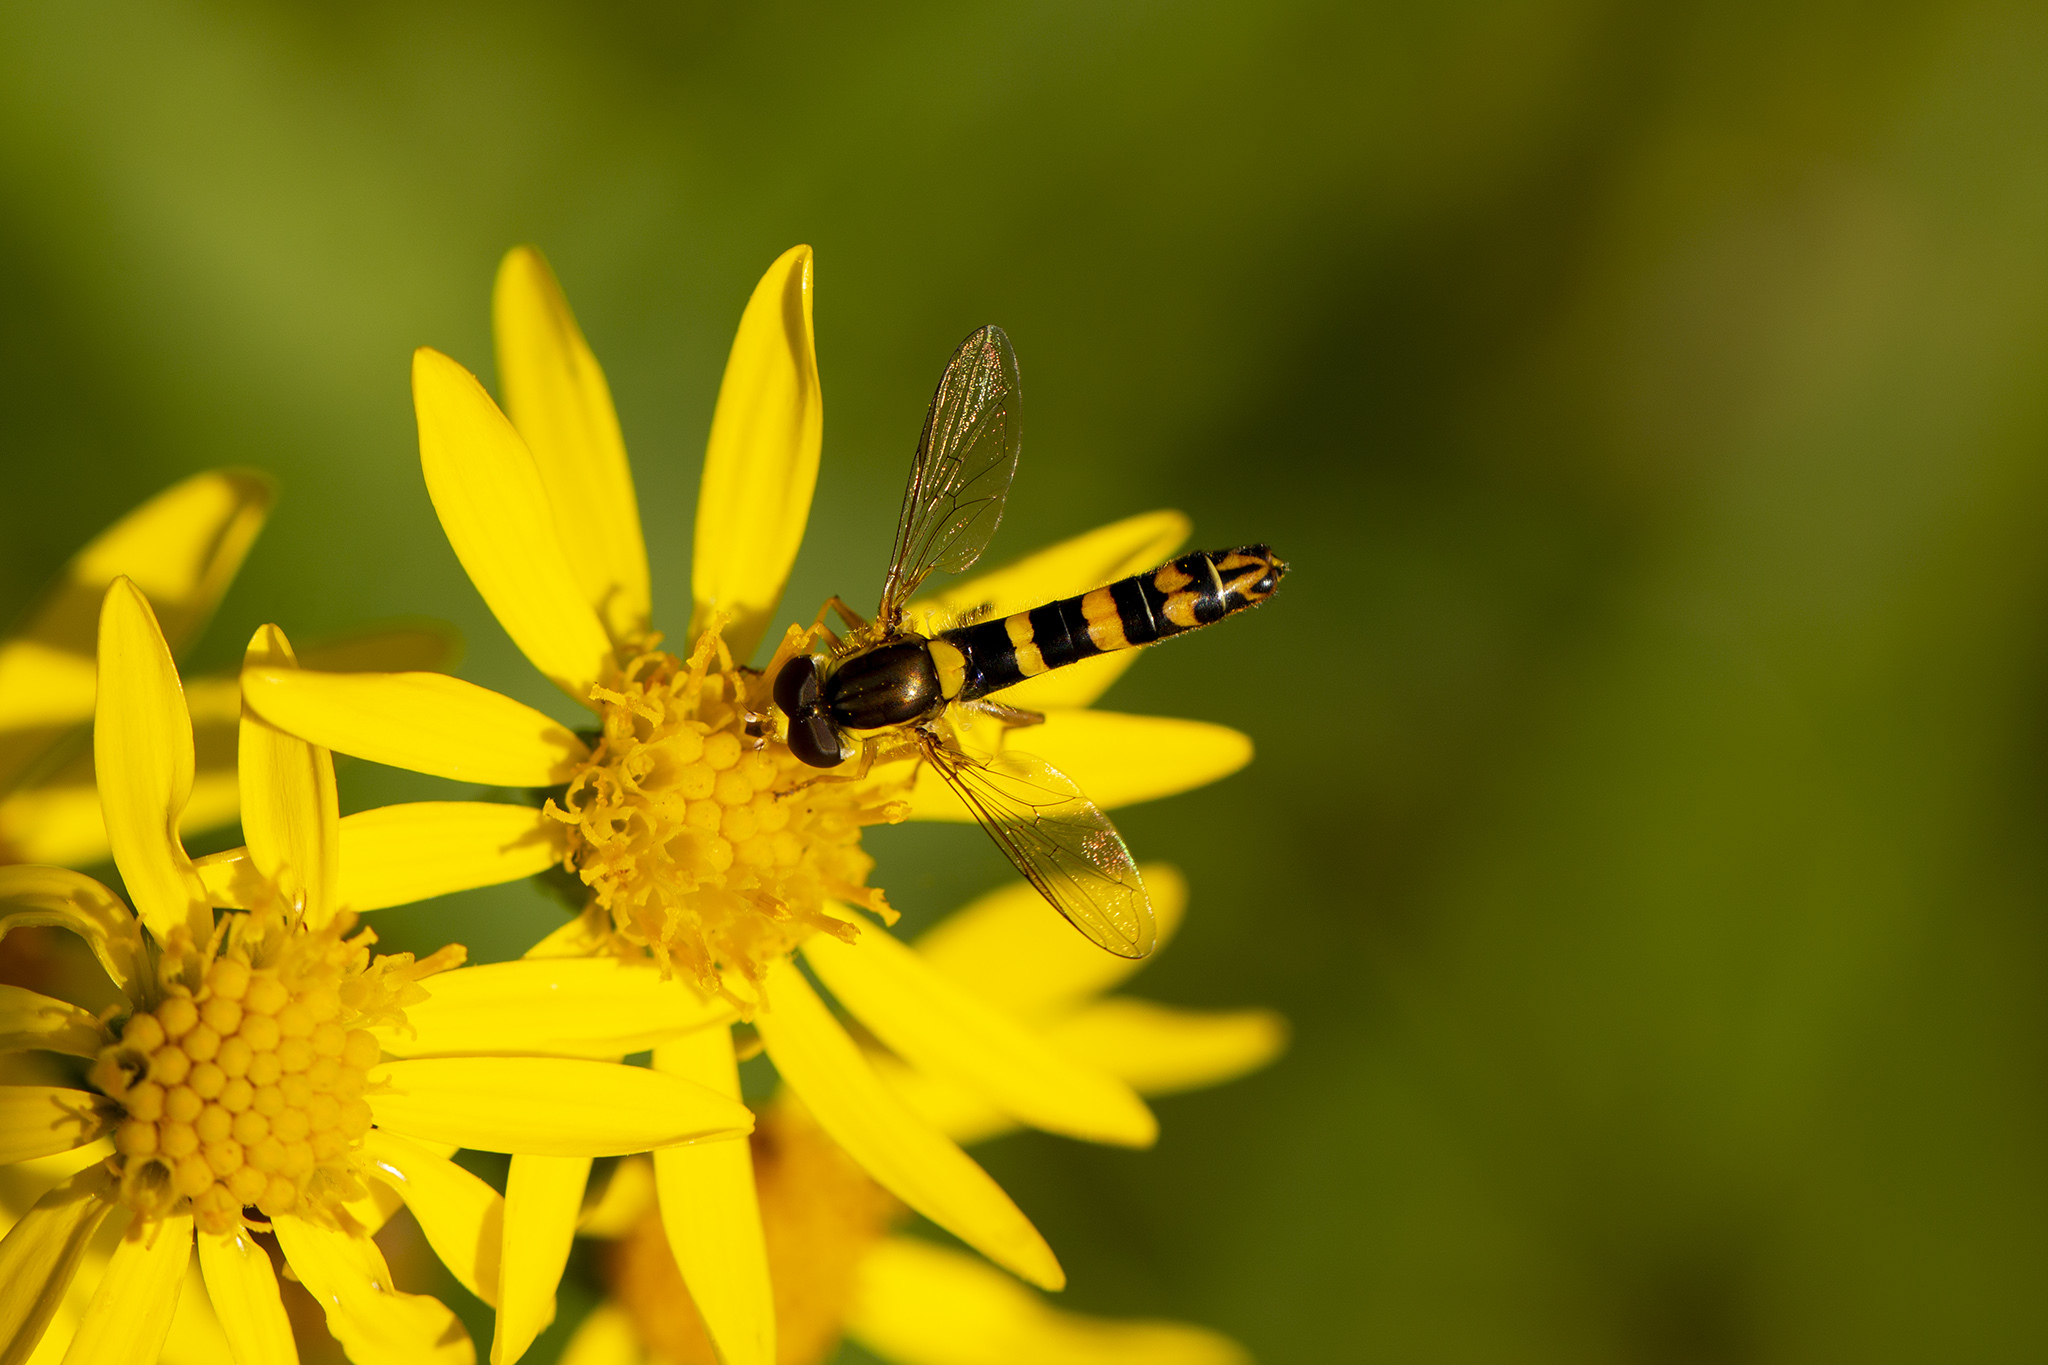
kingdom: Animalia
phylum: Arthropoda
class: Insecta
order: Diptera
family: Syrphidae
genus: Sphaerophoria
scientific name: Sphaerophoria scripta
